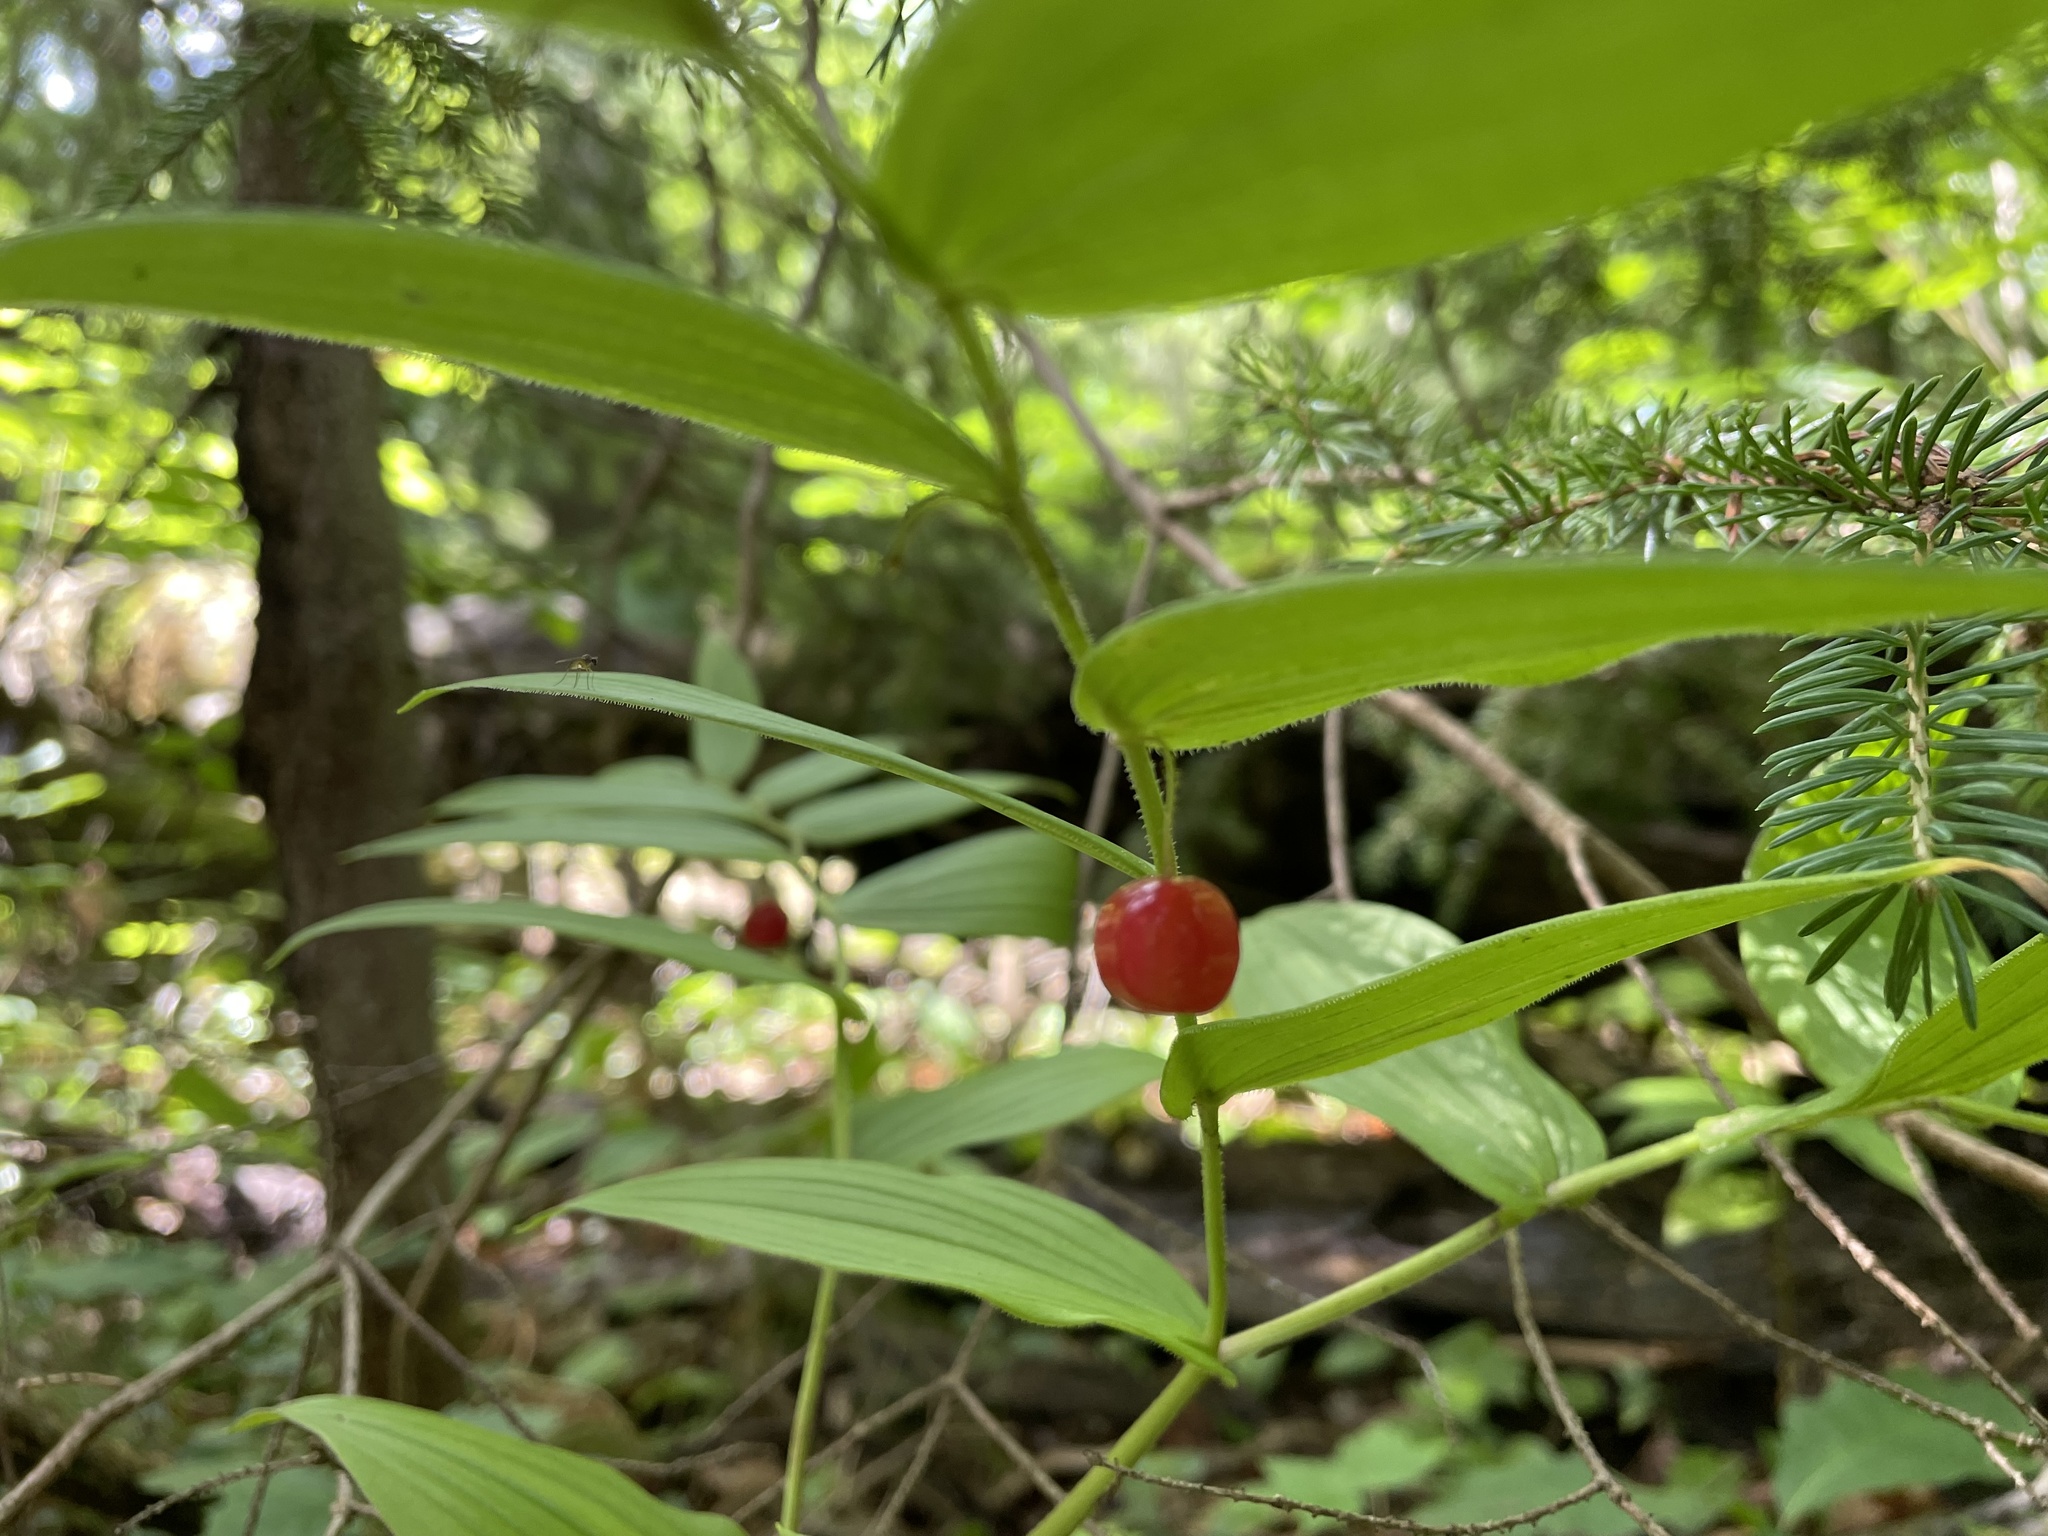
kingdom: Plantae
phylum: Tracheophyta
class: Liliopsida
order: Liliales
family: Liliaceae
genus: Streptopus
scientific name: Streptopus lanceolatus
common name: Rose mandarin
